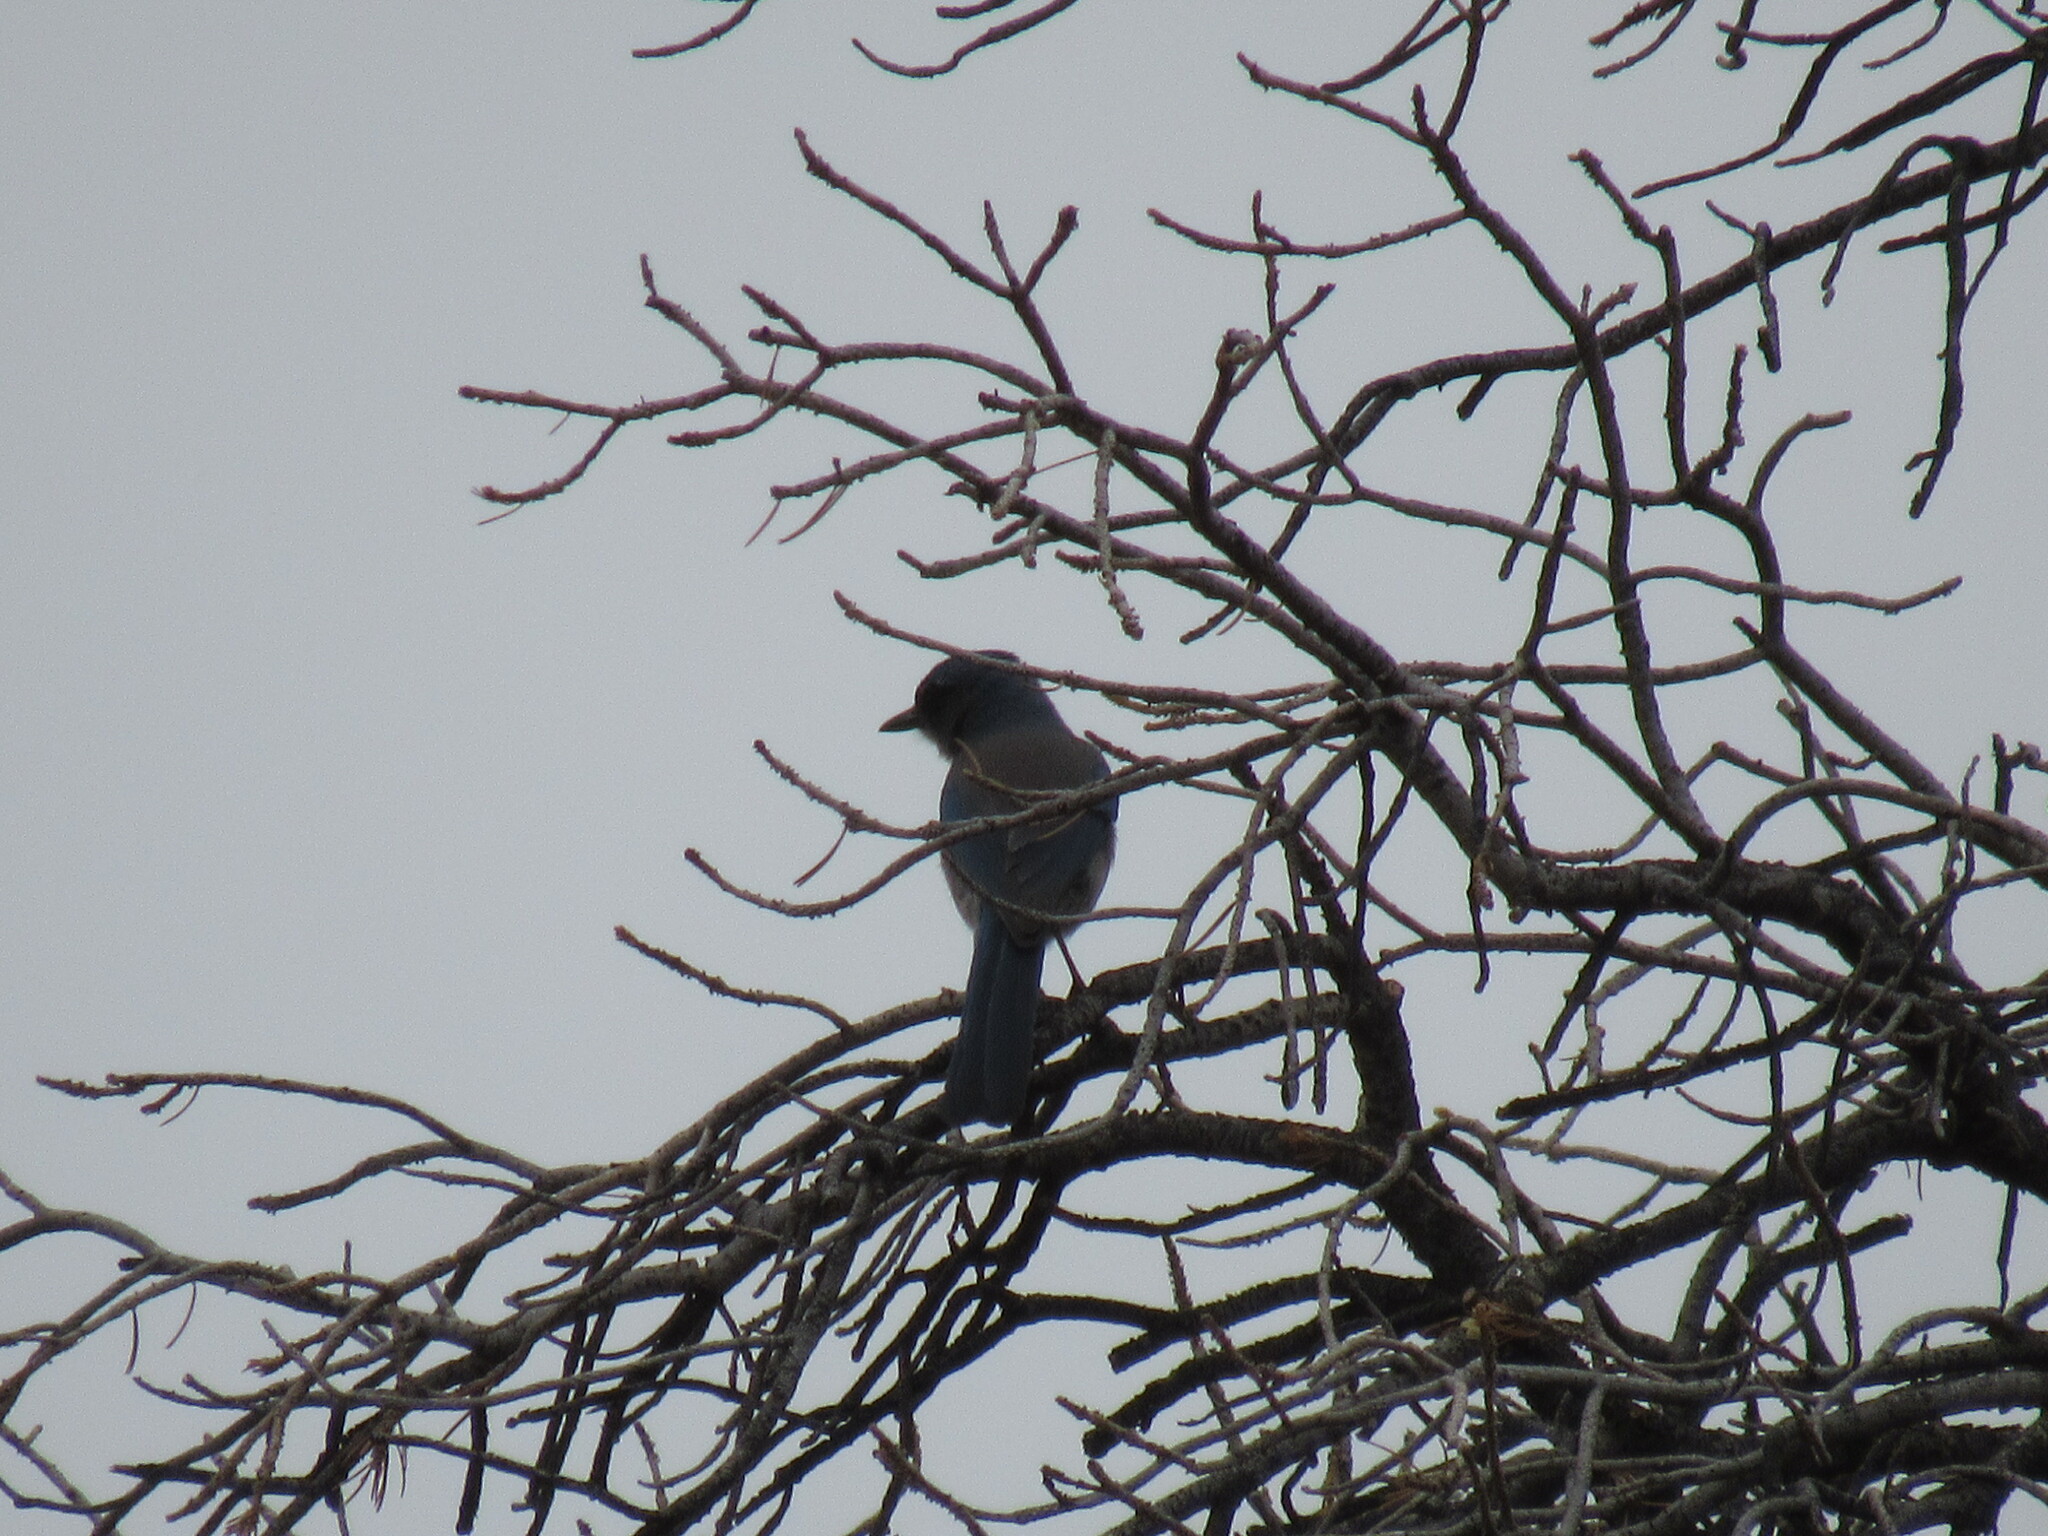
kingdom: Animalia
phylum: Chordata
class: Aves
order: Passeriformes
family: Corvidae
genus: Aphelocoma
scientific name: Aphelocoma woodhouseii
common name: Woodhouse's scrub-jay
